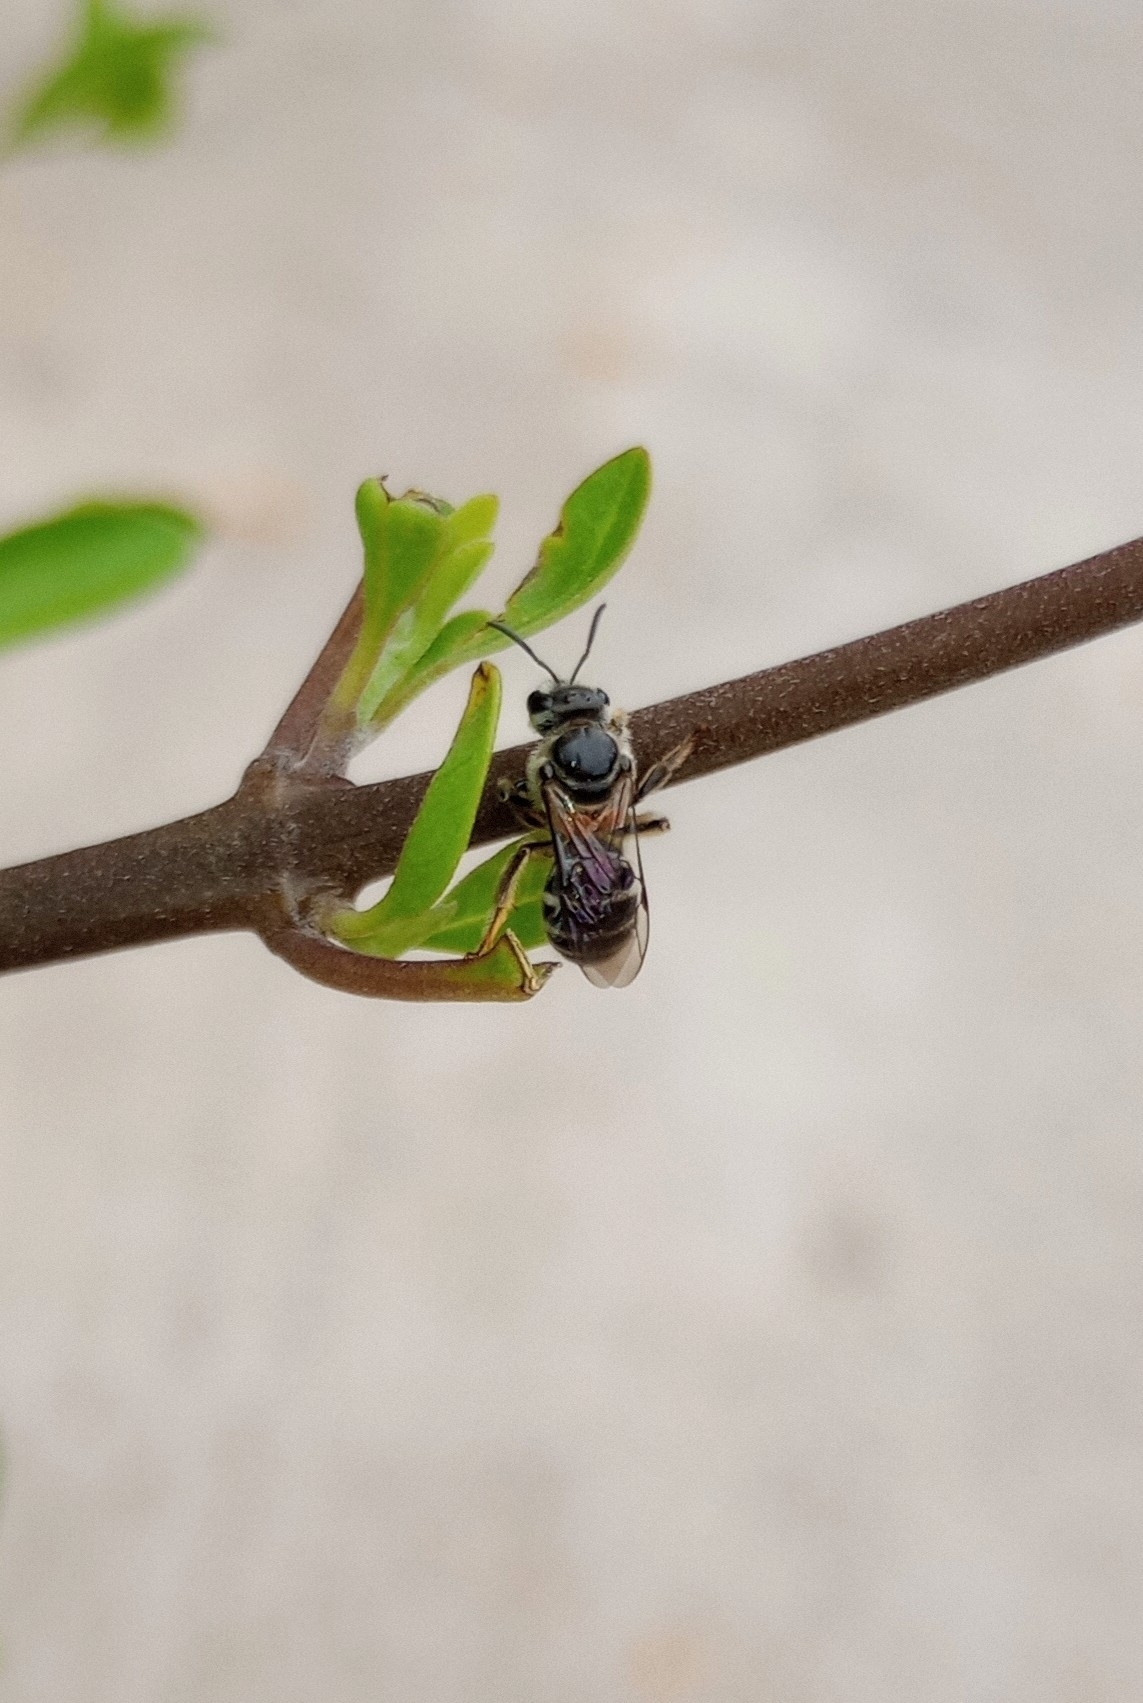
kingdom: Animalia
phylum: Arthropoda
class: Insecta
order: Hymenoptera
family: Halictidae
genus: Lasioglossum
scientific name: Lasioglossum albescens
